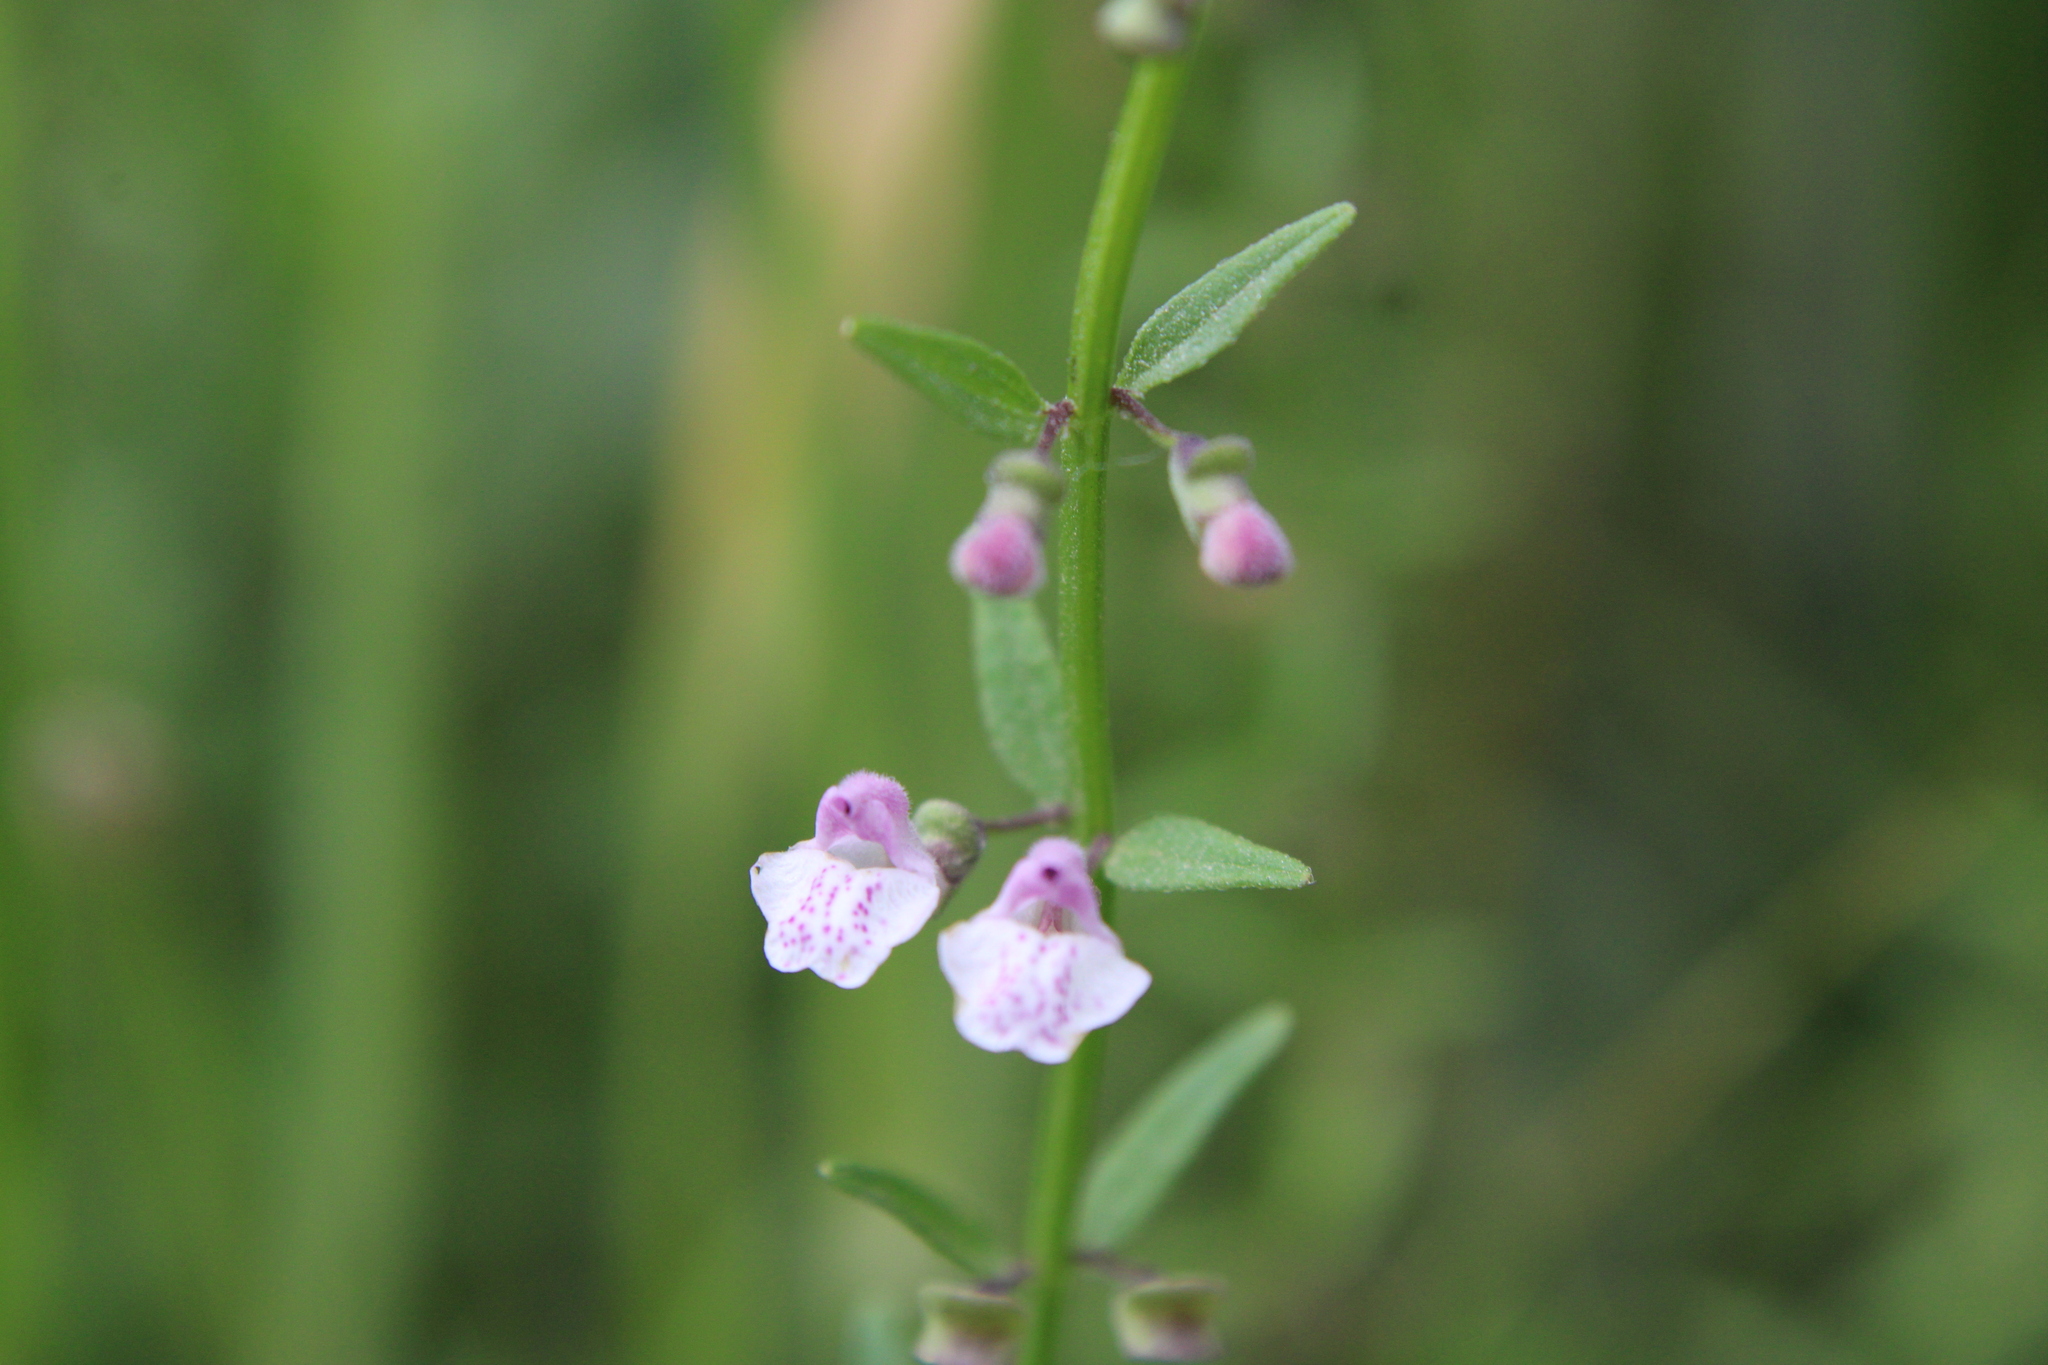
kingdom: Plantae
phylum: Tracheophyta
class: Magnoliopsida
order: Lamiales
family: Lamiaceae
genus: Scutellaria
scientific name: Scutellaria racemosa
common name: South american skullcap
